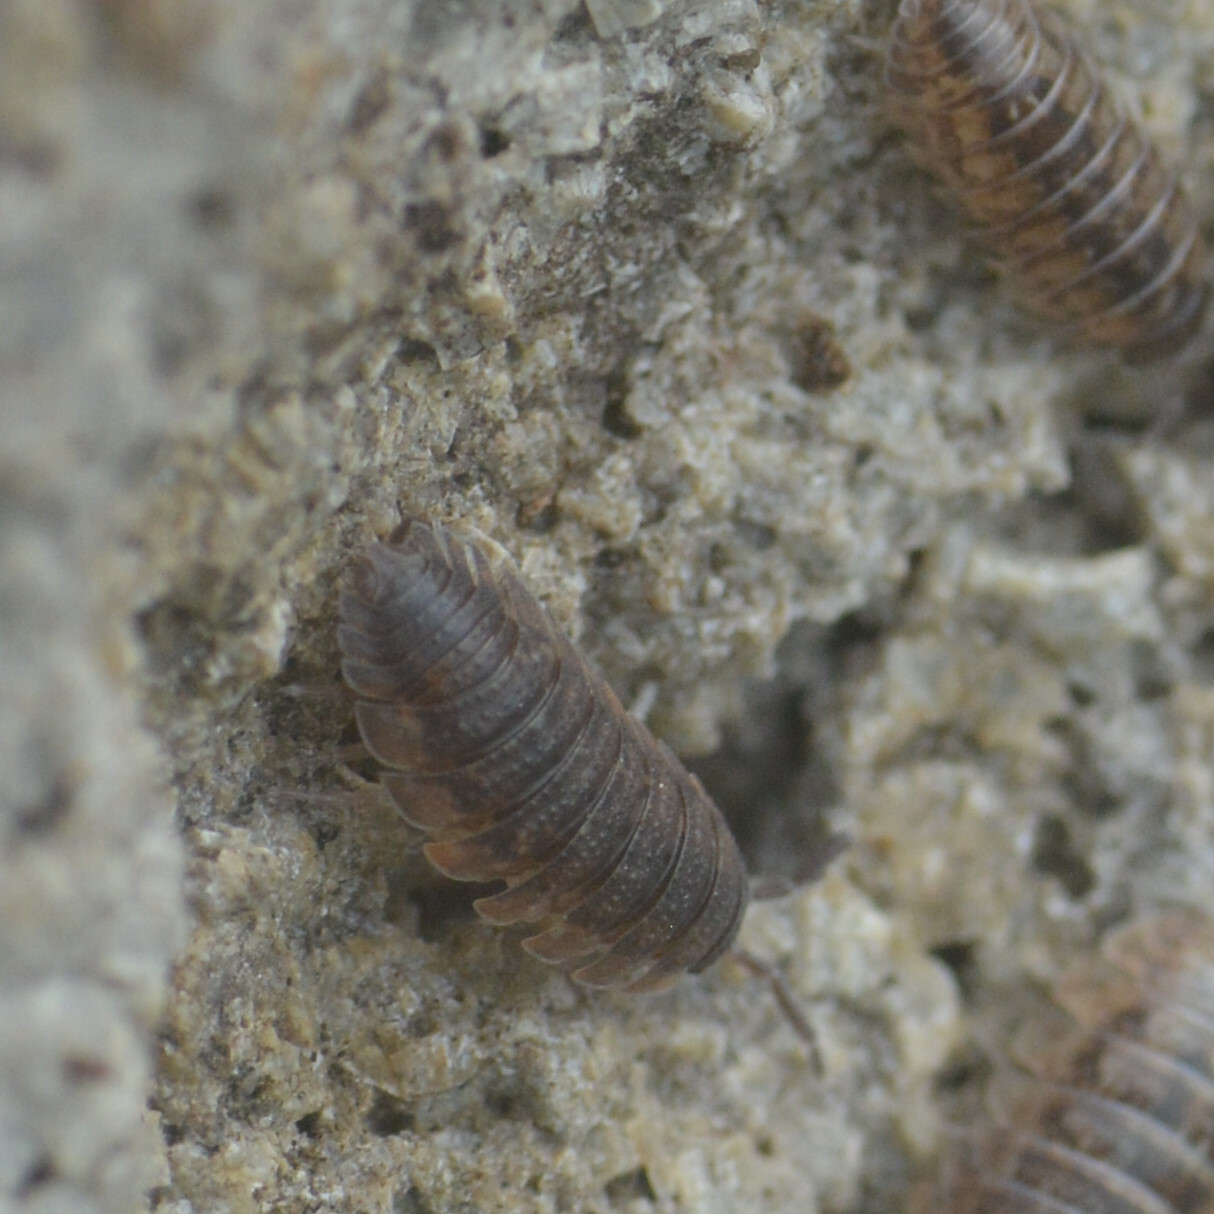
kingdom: Animalia
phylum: Arthropoda
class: Malacostraca
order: Isopoda
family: Porcellionidae
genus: Porcellio
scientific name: Porcellio scaber
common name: Common rough woodlouse
